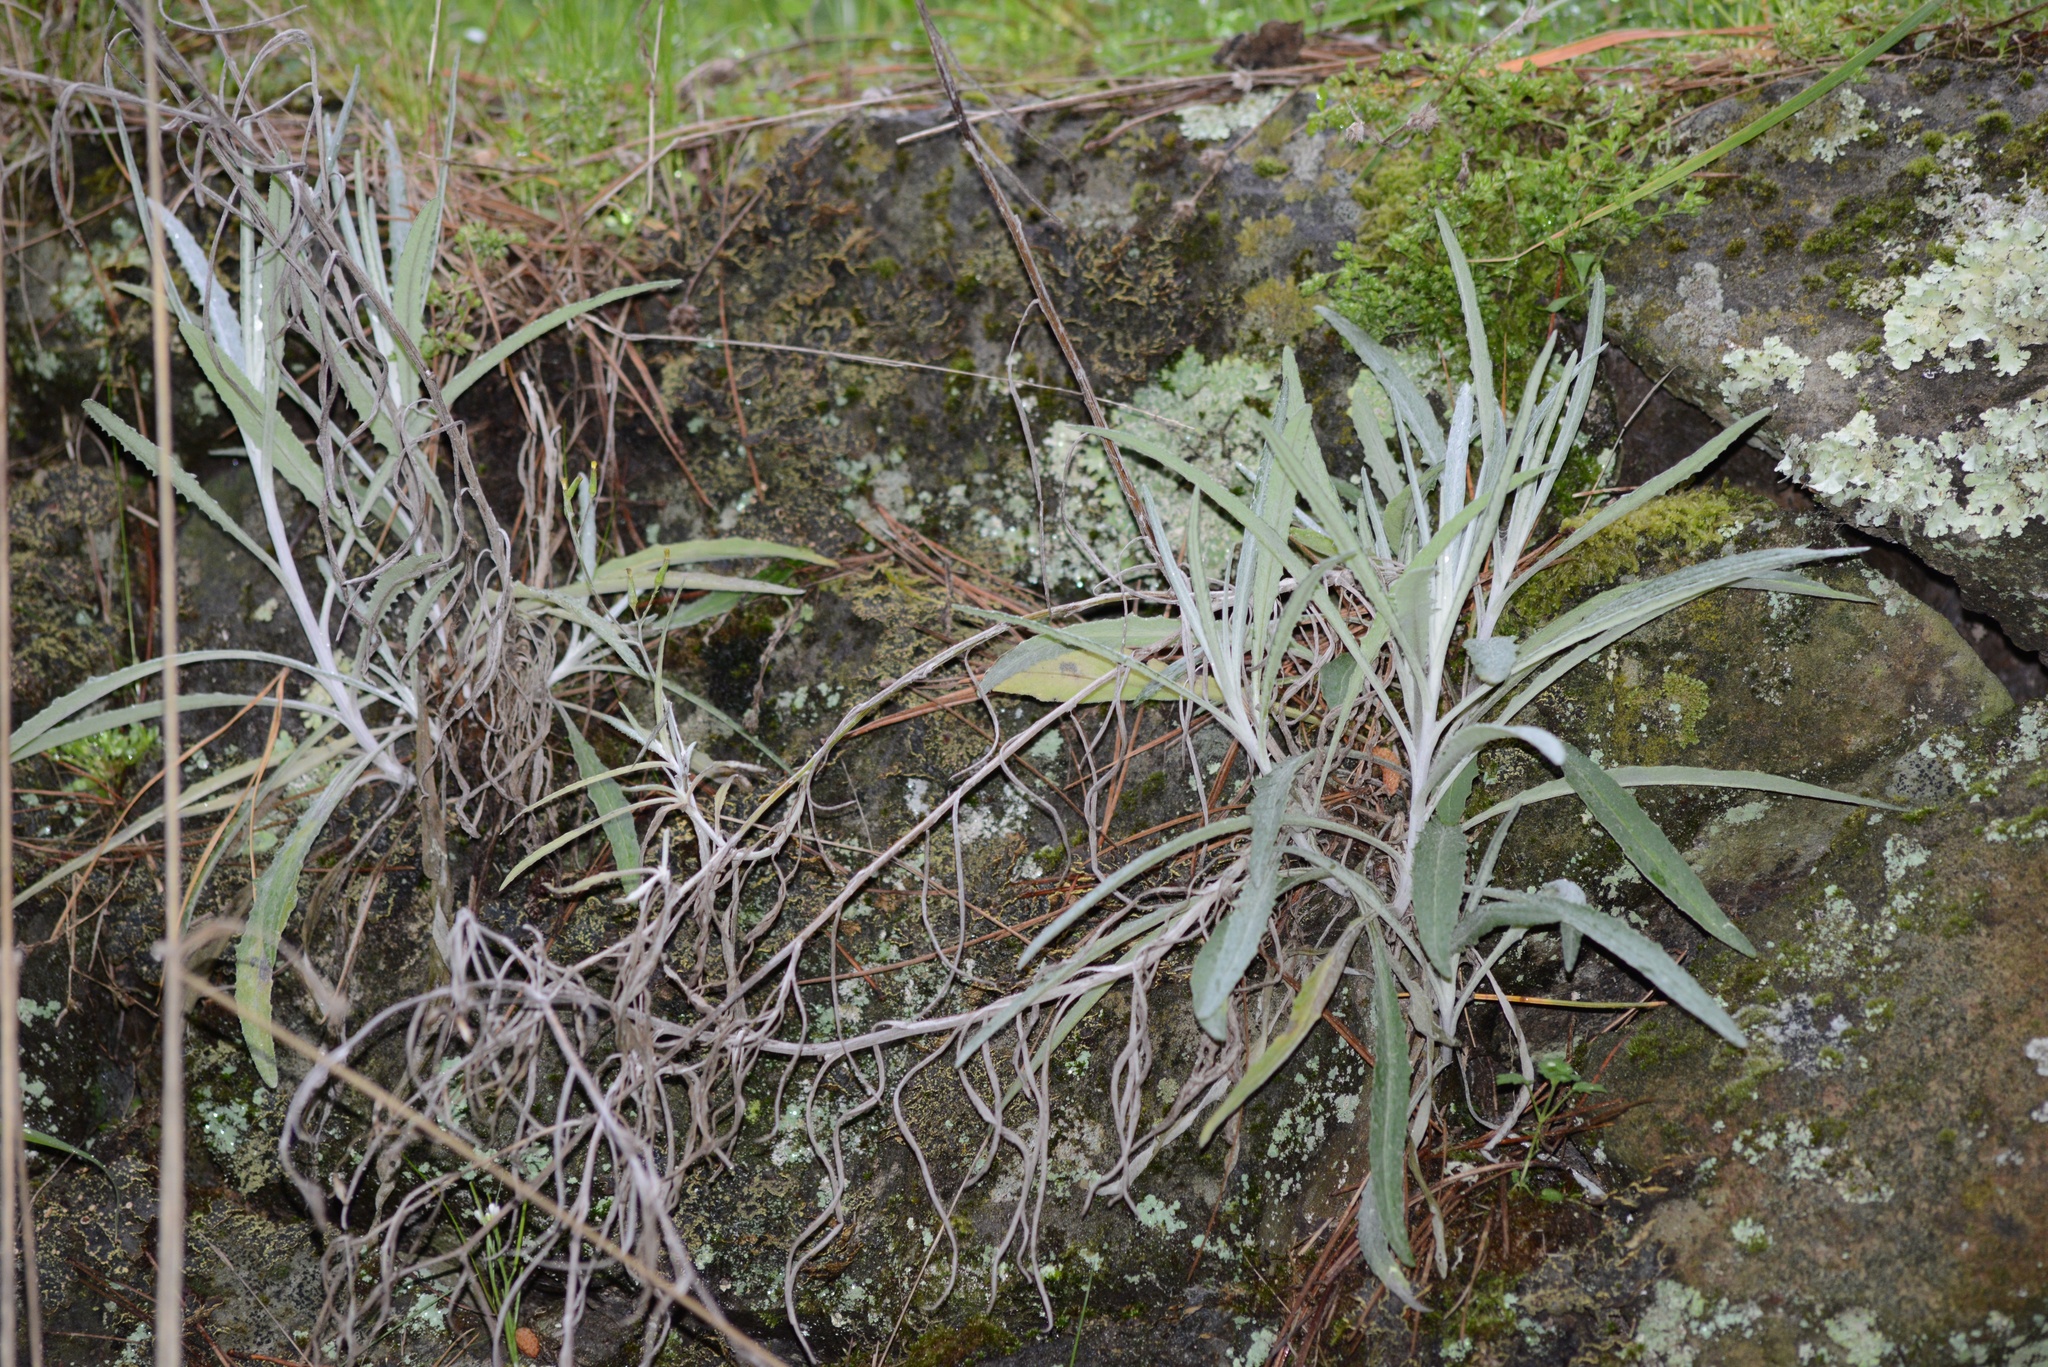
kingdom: Plantae
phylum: Tracheophyta
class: Magnoliopsida
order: Asterales
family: Asteraceae
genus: Senecio
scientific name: Senecio quadridentatus
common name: Cotton fireweed
